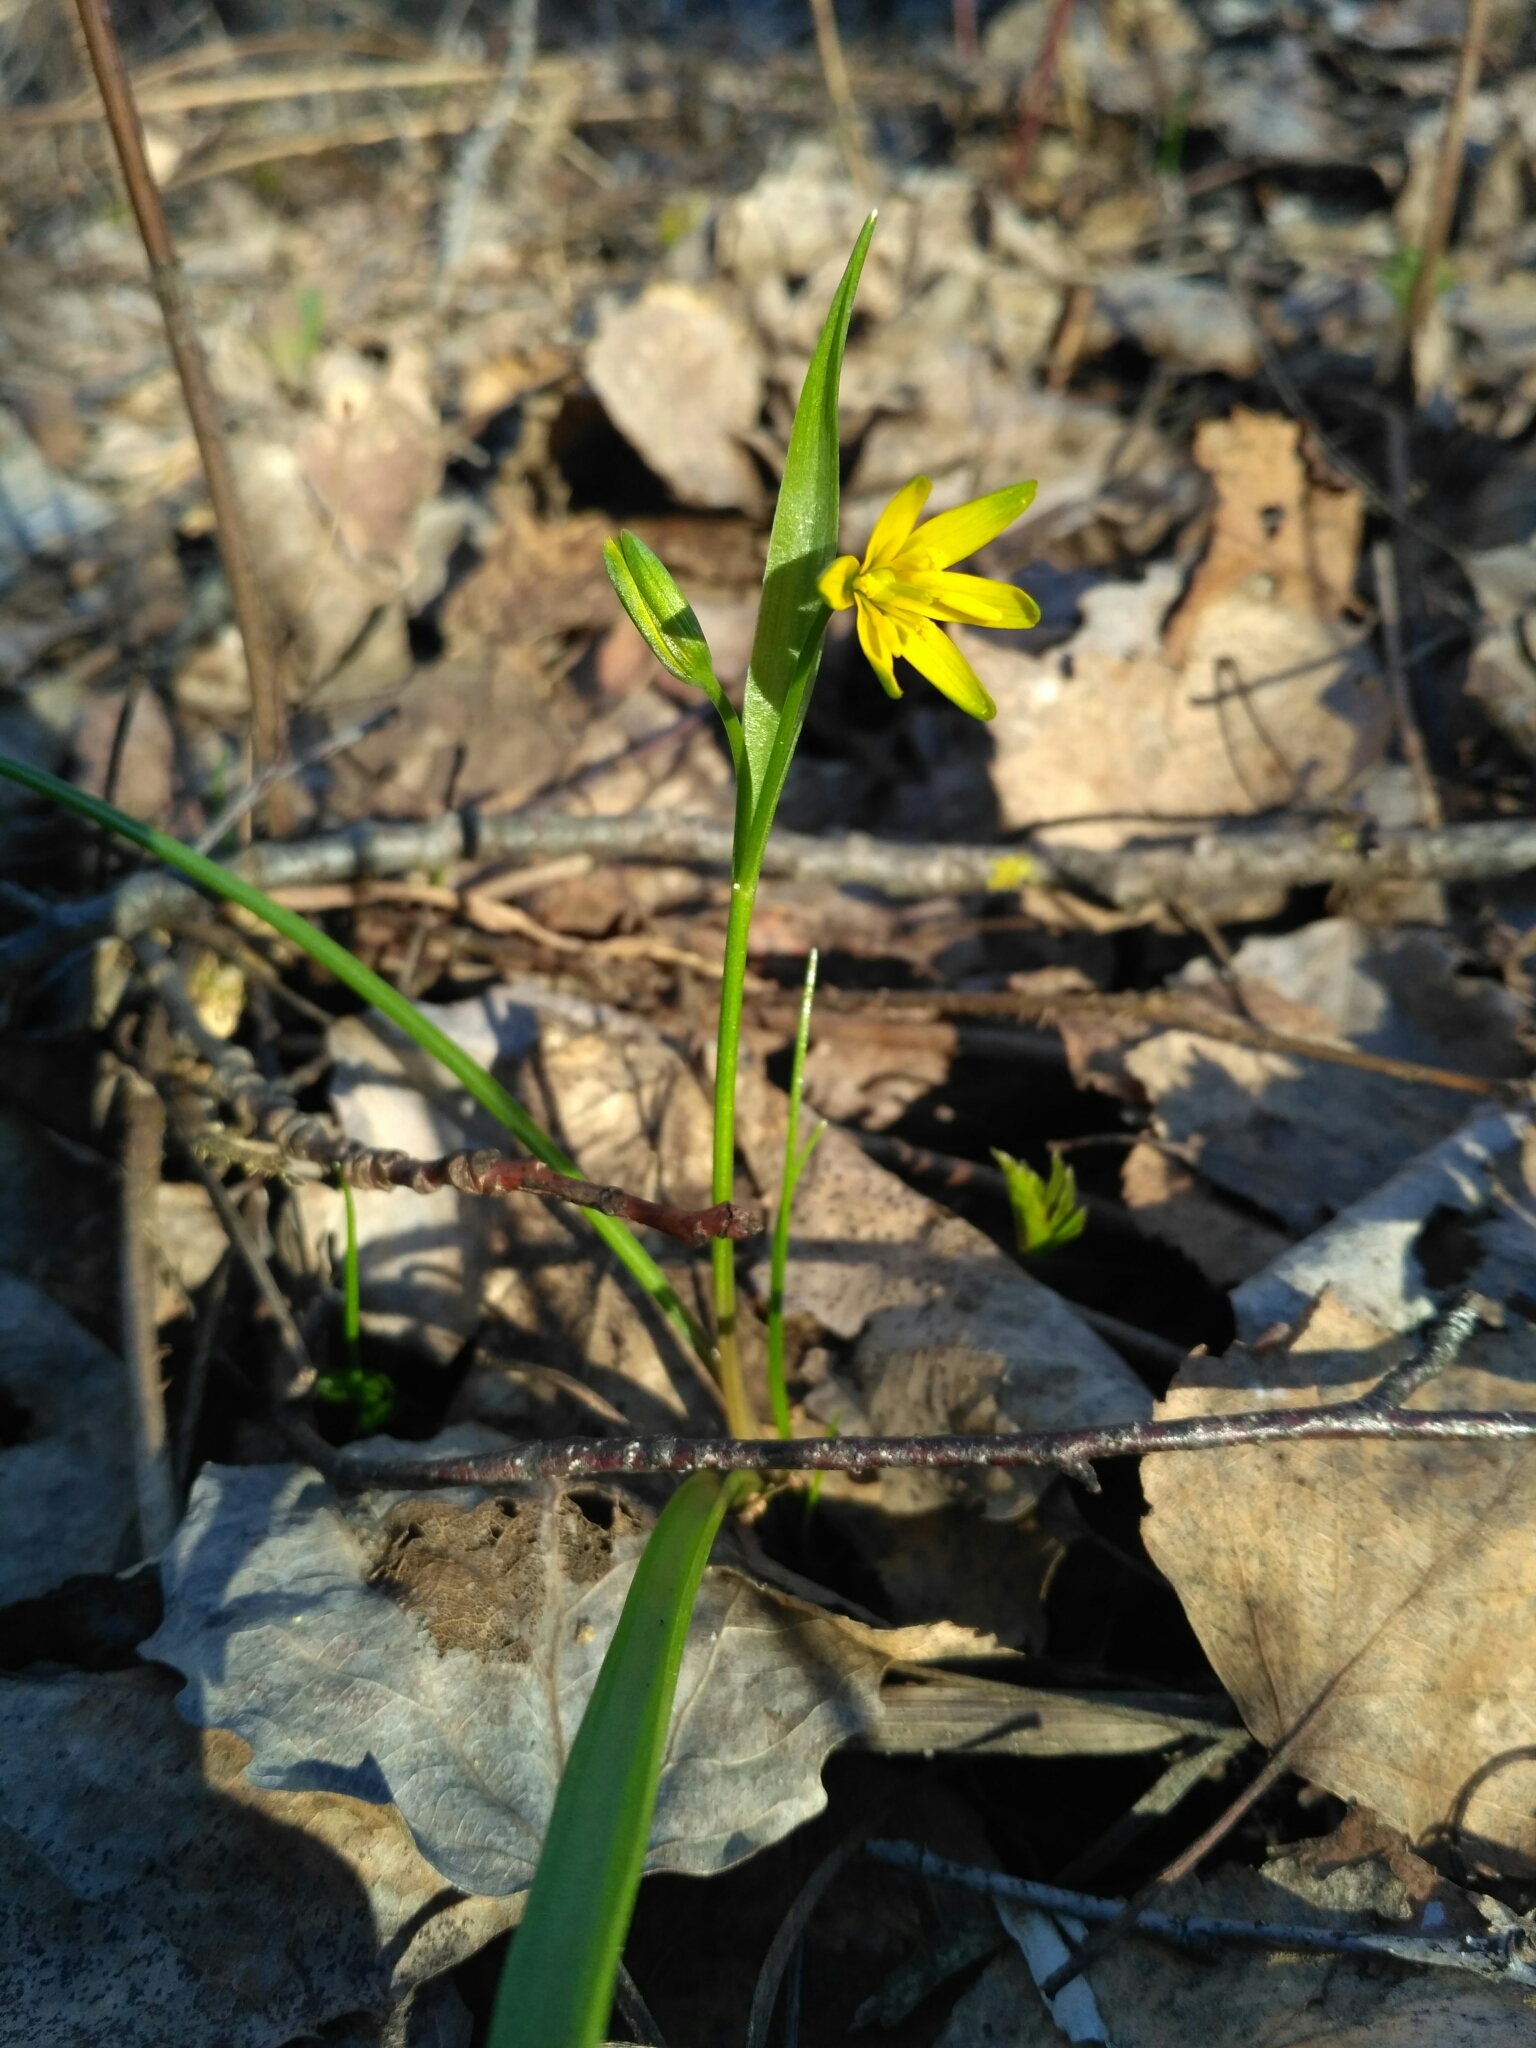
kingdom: Plantae
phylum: Tracheophyta
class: Liliopsida
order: Liliales
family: Liliaceae
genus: Gagea
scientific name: Gagea lutea
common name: Yellow star-of-bethlehem
